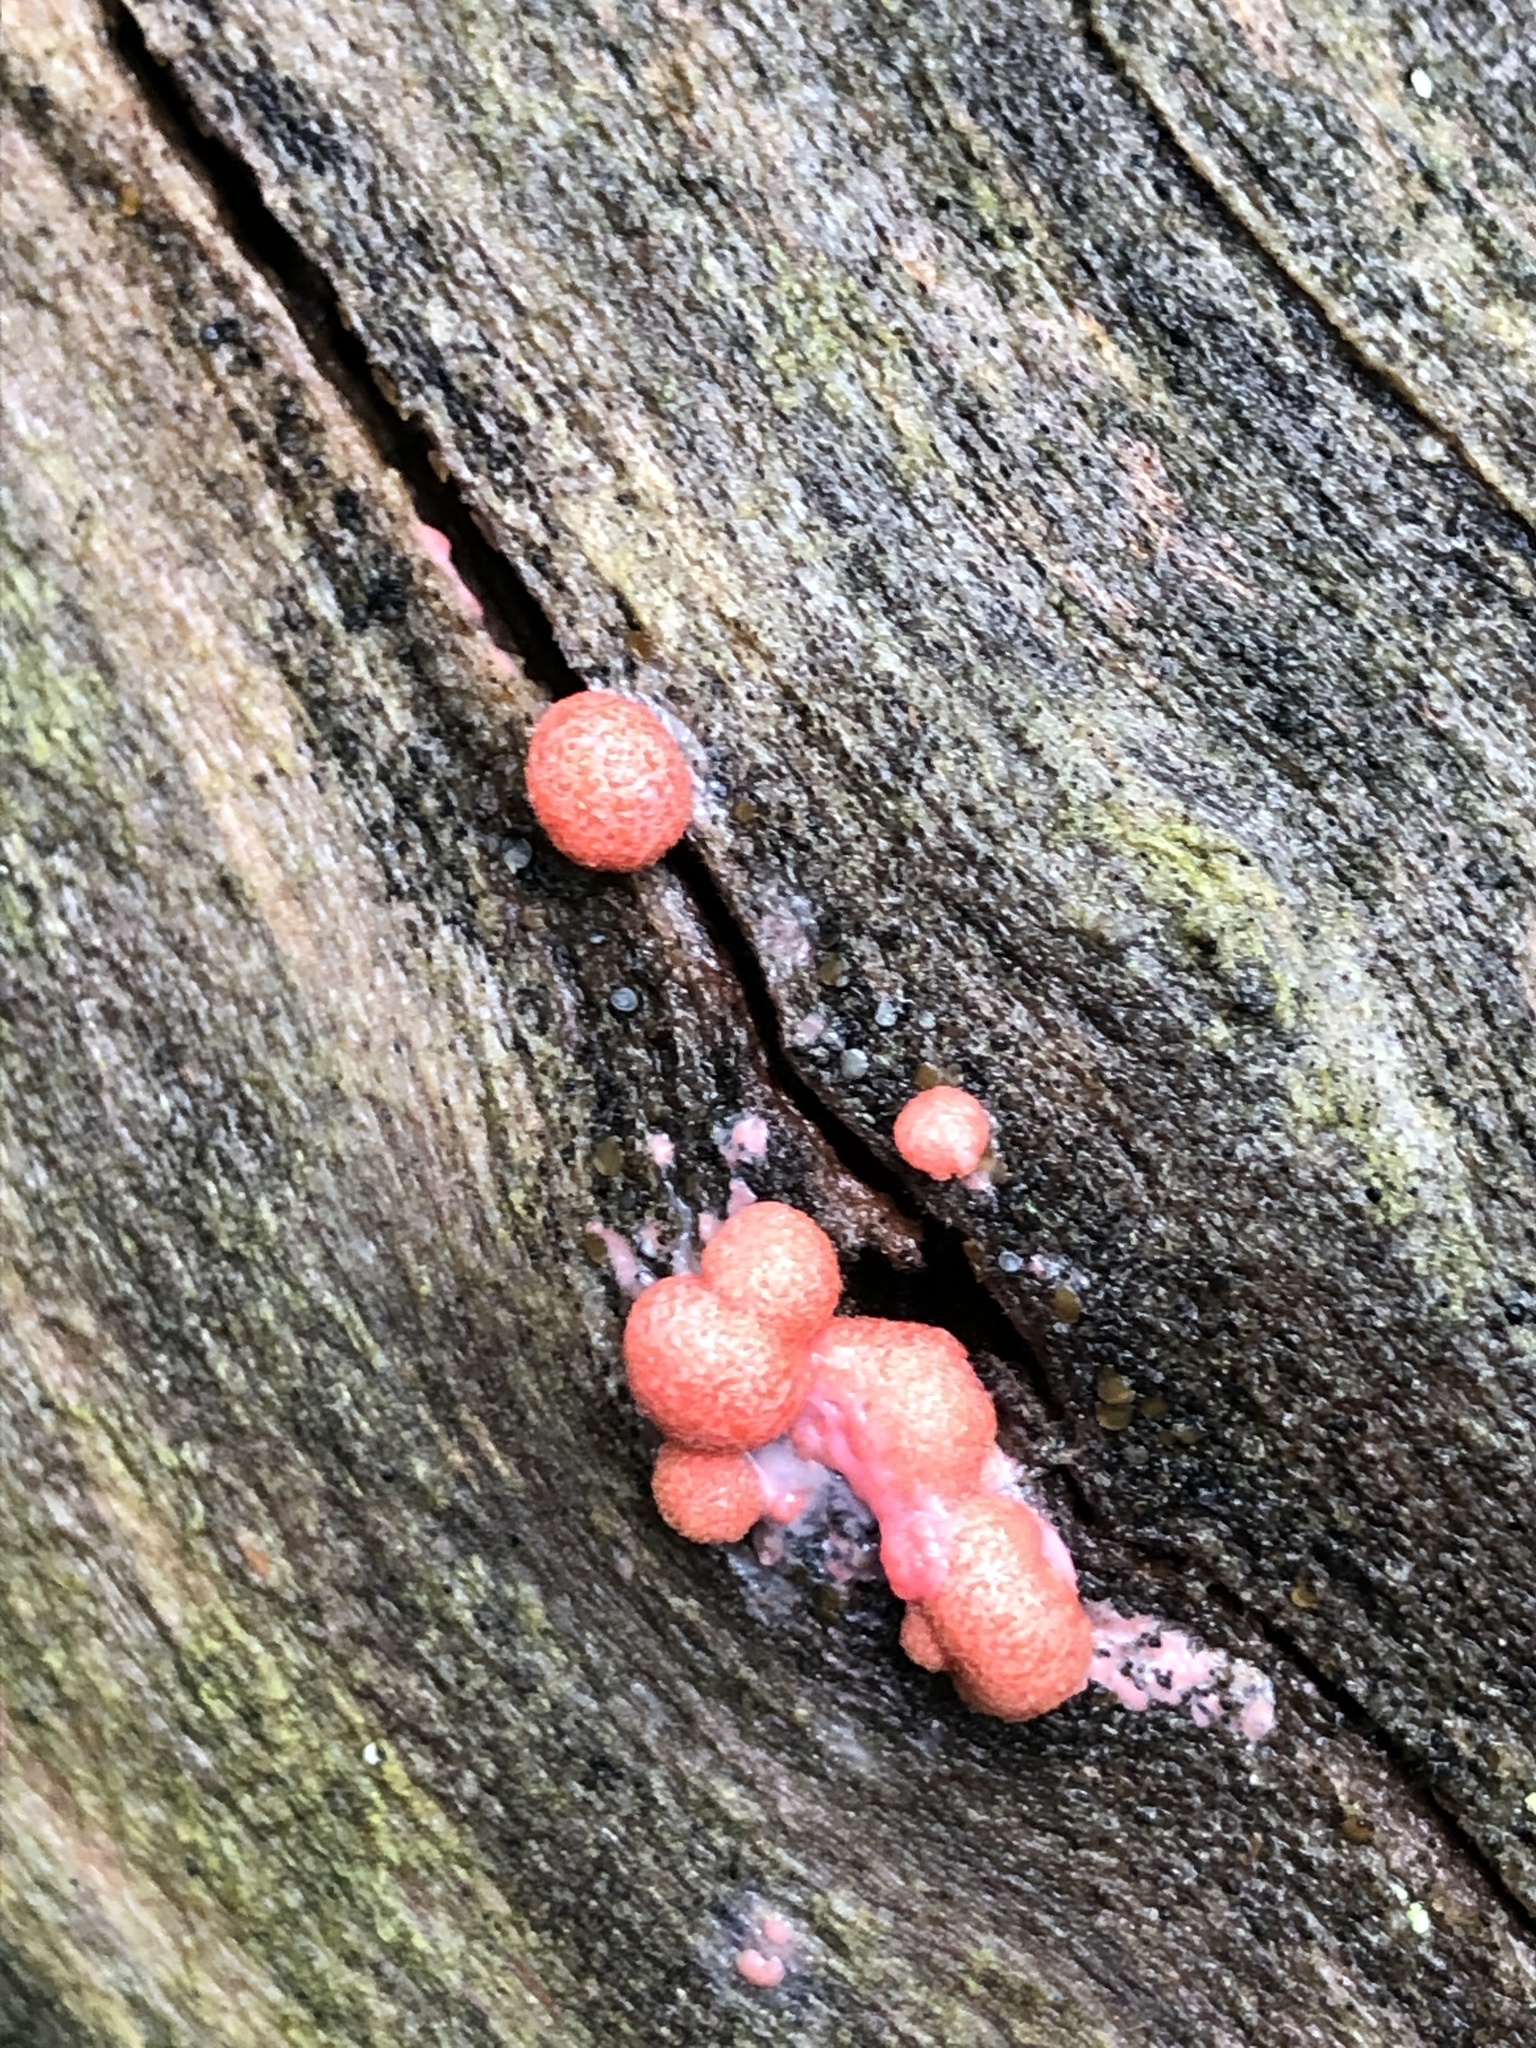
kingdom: Protozoa
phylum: Mycetozoa
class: Myxomycetes
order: Cribrariales
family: Tubiferaceae
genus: Lycogala
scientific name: Lycogala epidendrum
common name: Wolf's milk
